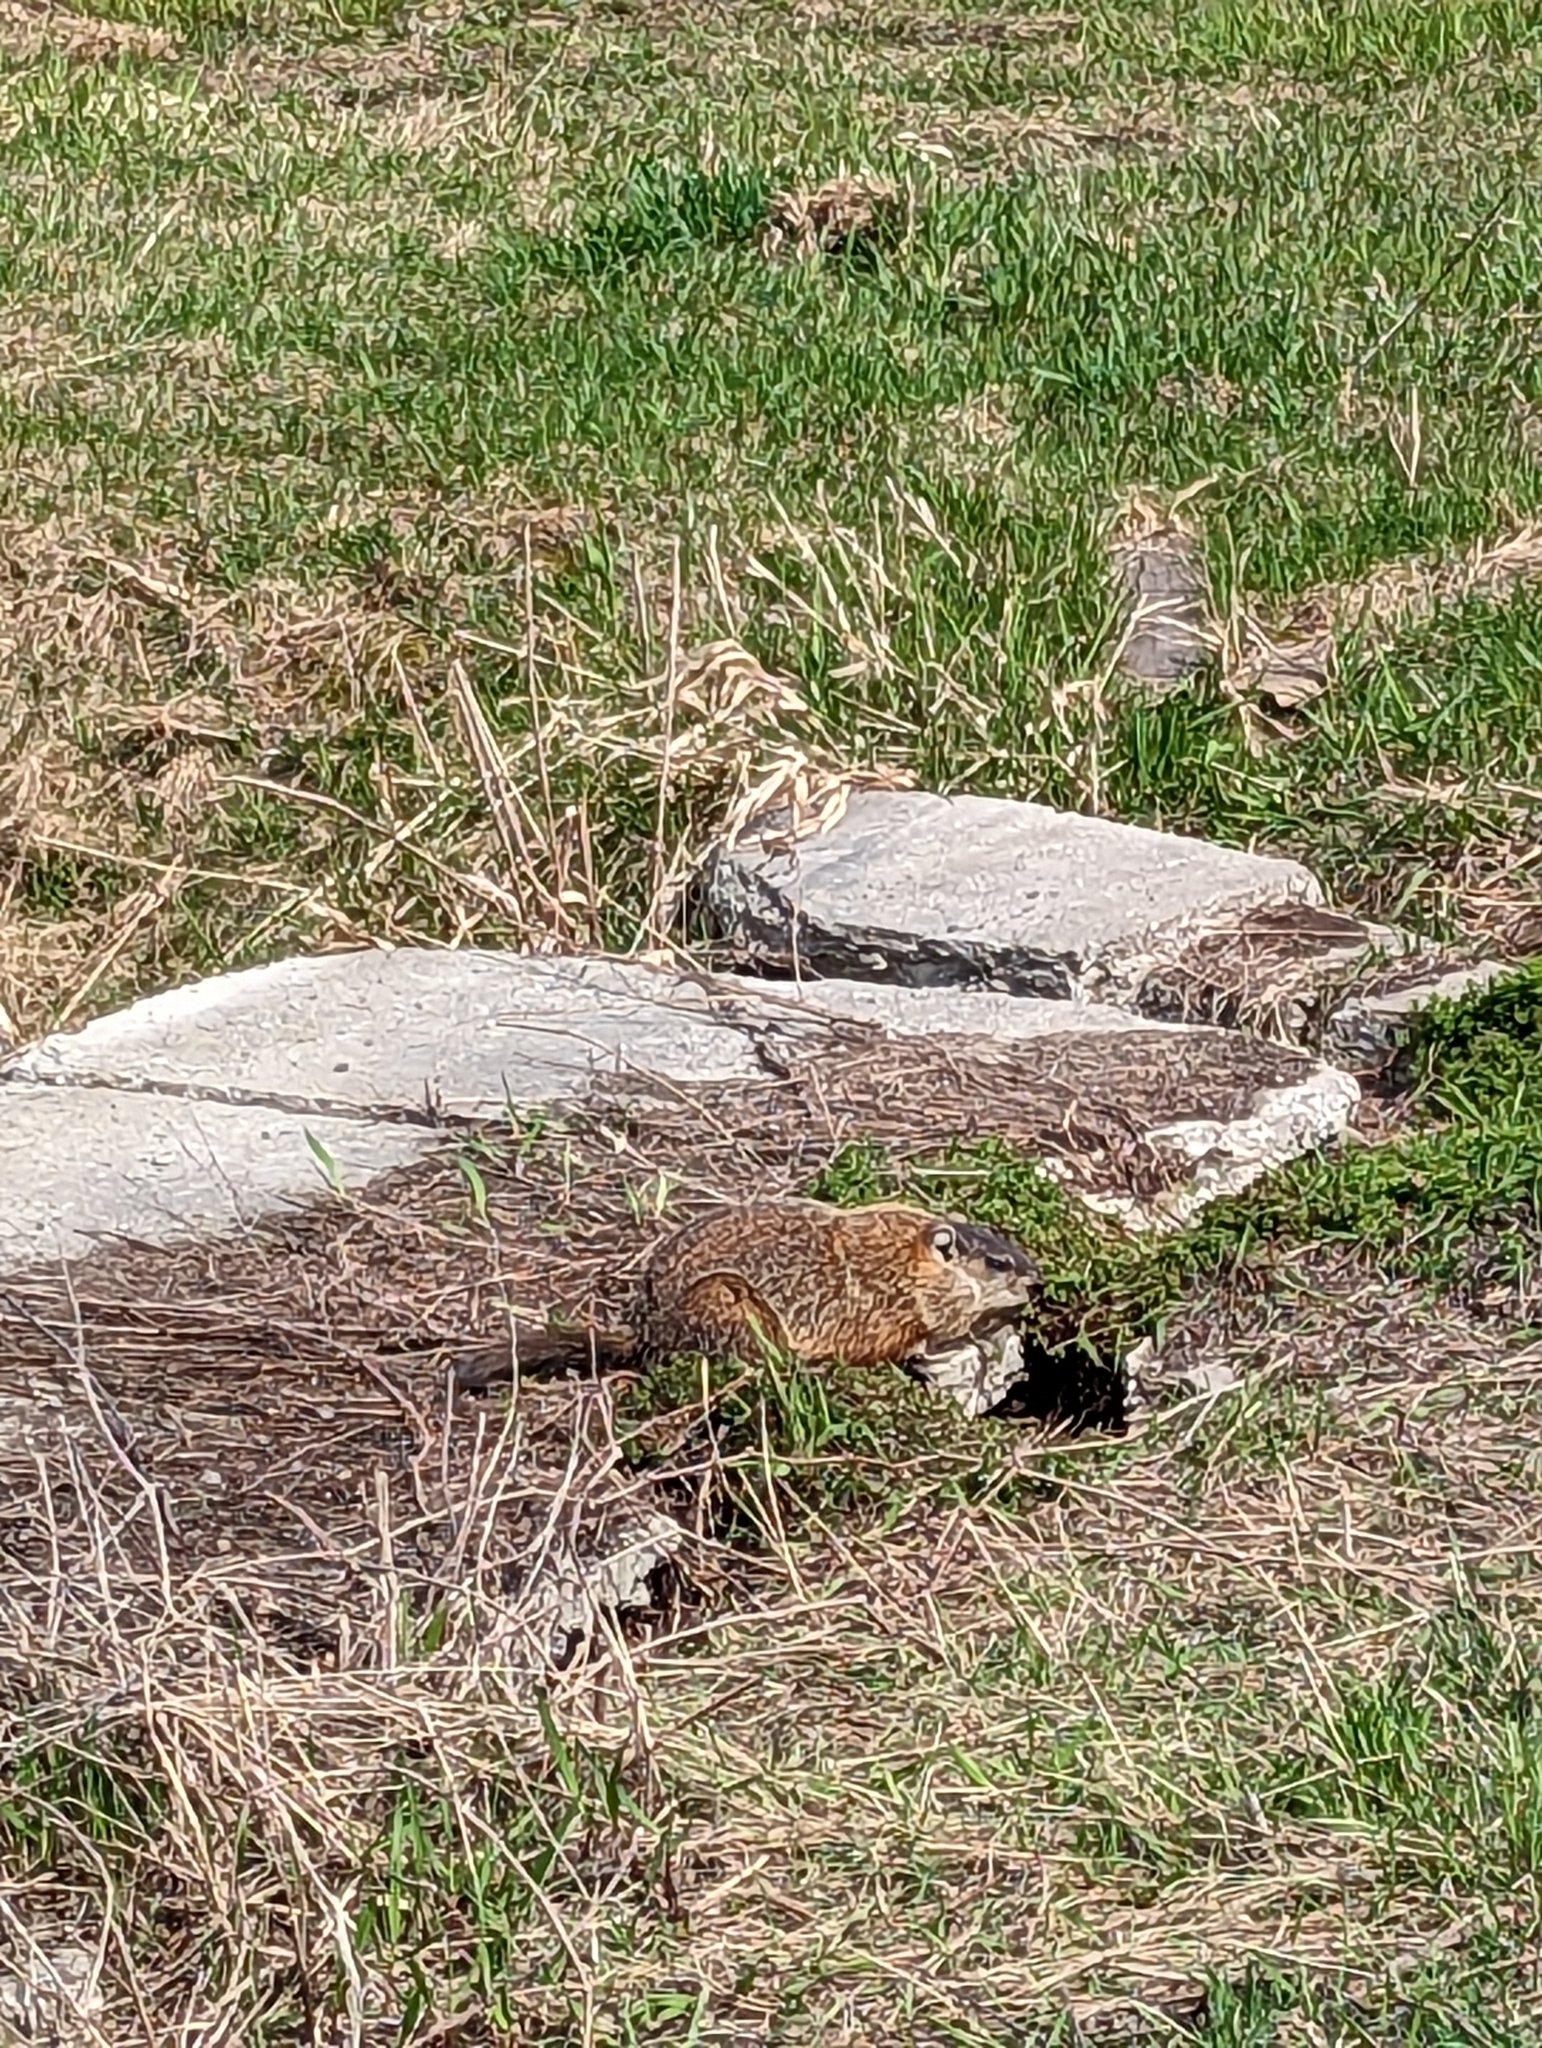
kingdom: Animalia
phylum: Chordata
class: Mammalia
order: Rodentia
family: Sciuridae
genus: Marmota
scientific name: Marmota monax
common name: Groundhog
